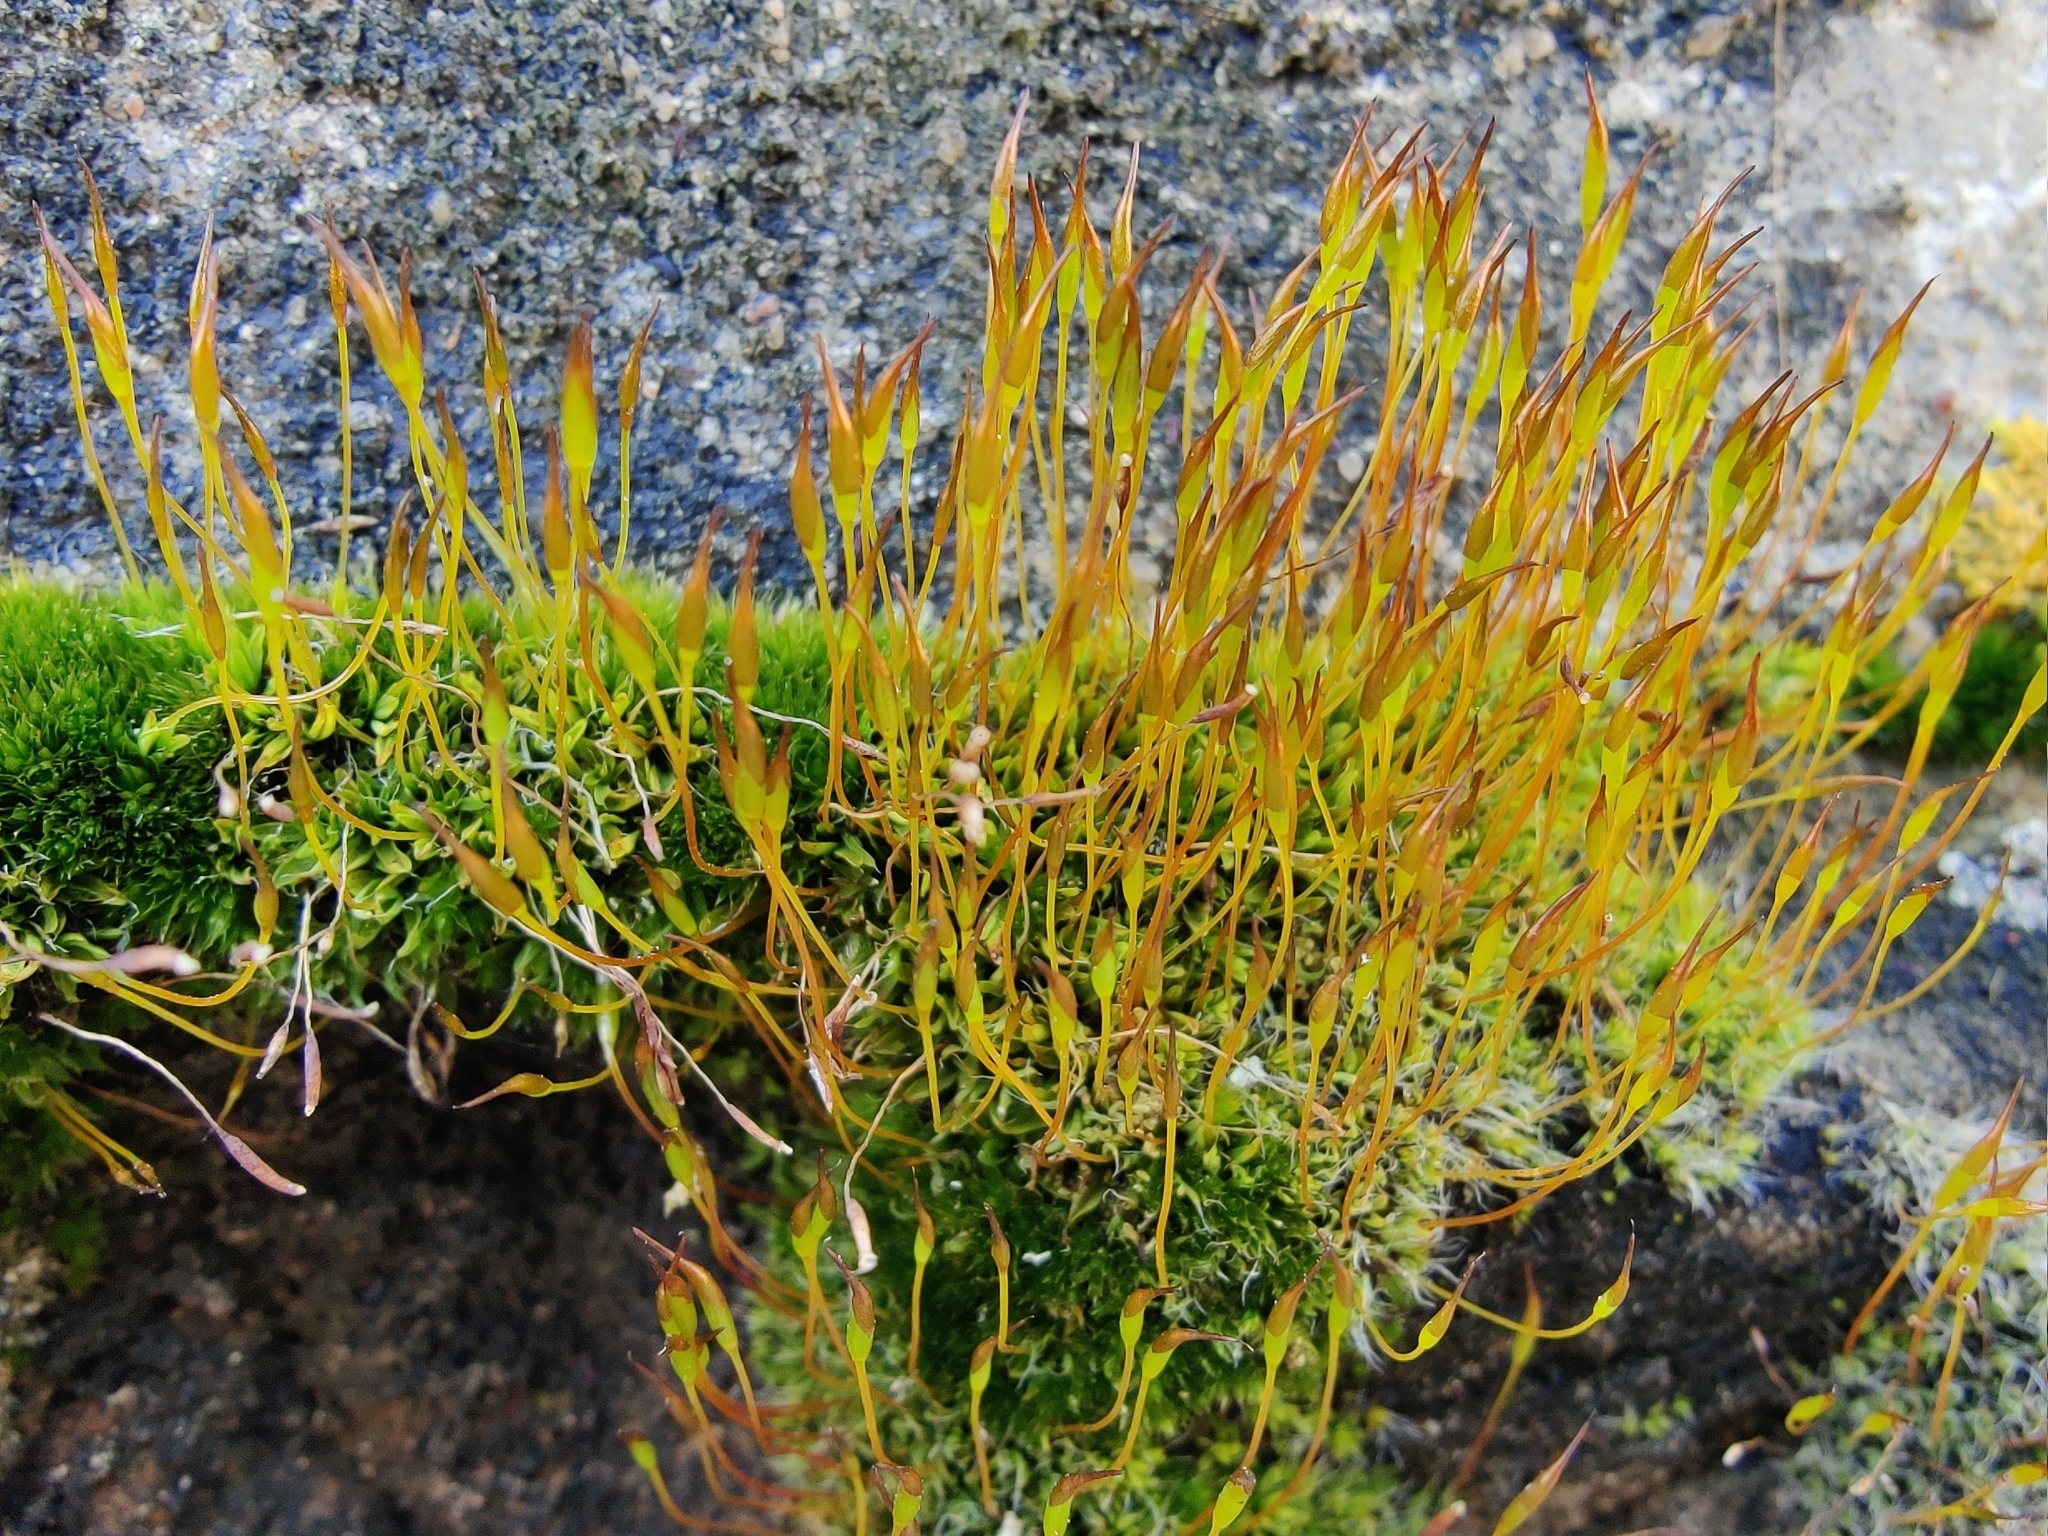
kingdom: Plantae
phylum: Bryophyta
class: Bryopsida
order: Pottiales
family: Pottiaceae
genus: Tortula
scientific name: Tortula muralis
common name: Wall screw-moss
